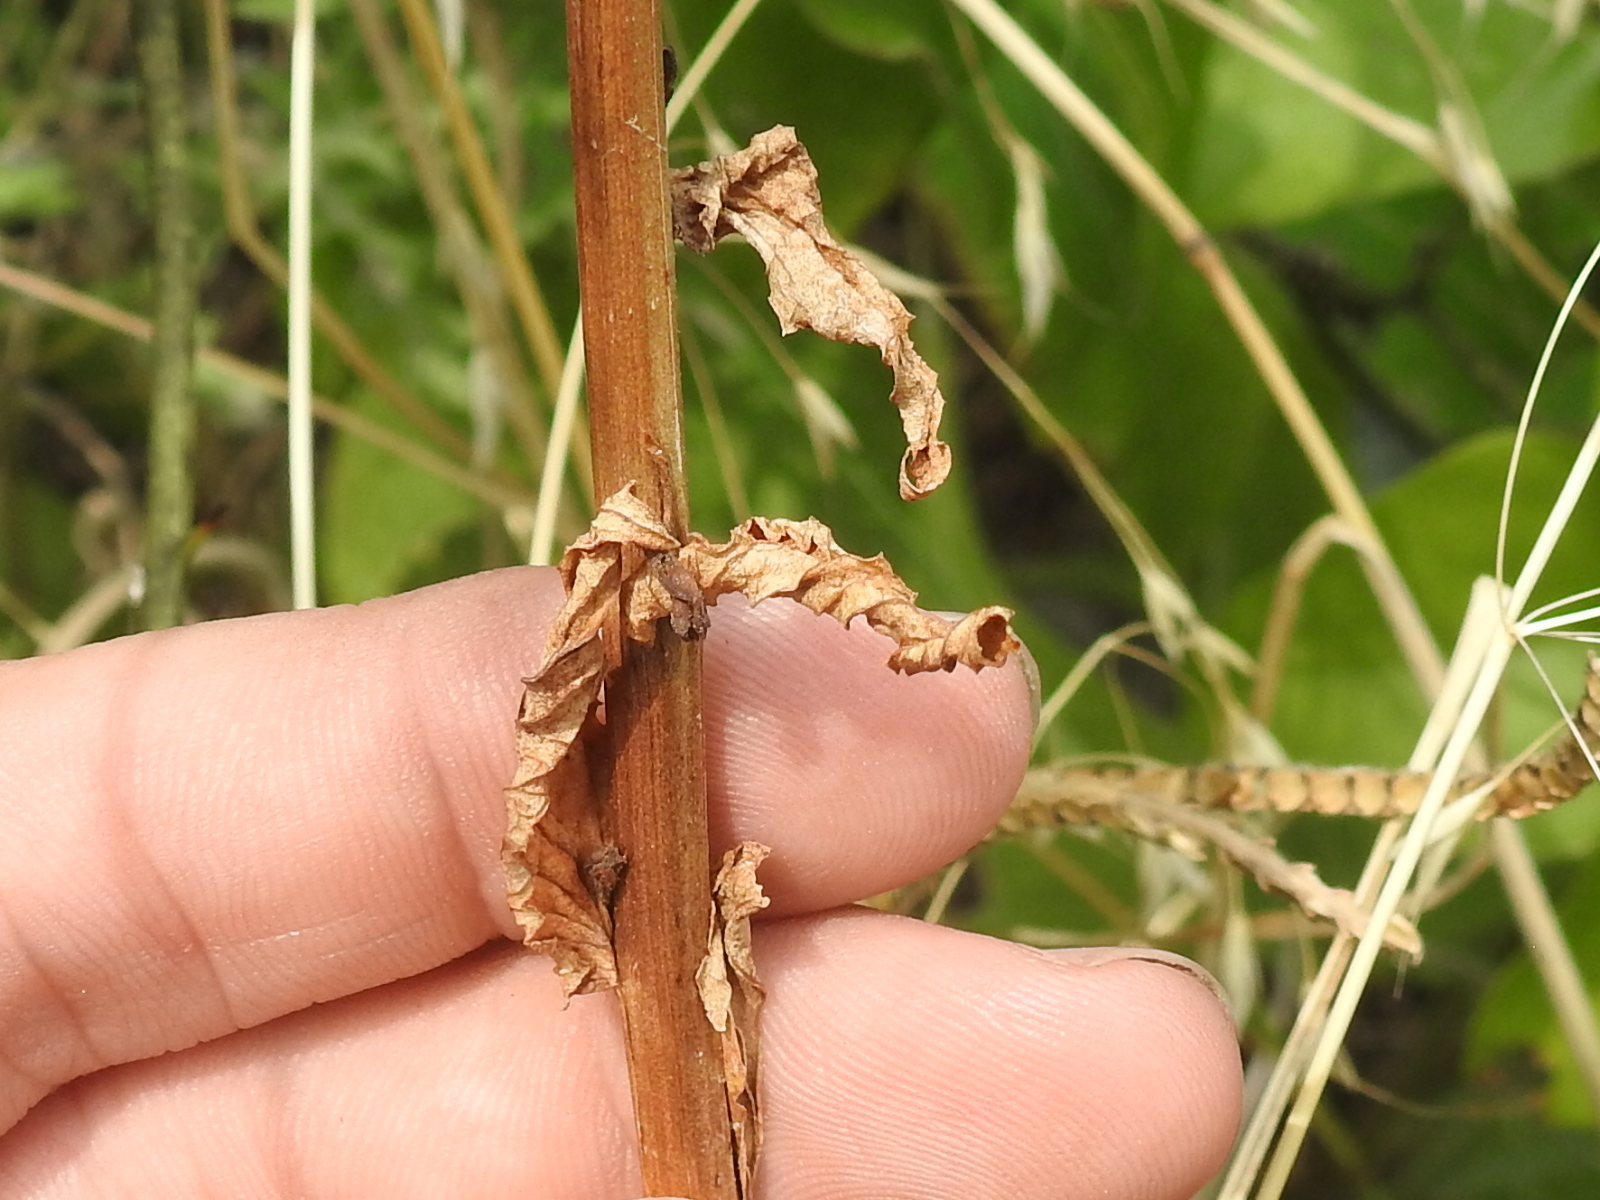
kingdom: Plantae
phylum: Tracheophyta
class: Magnoliopsida
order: Lamiales
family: Scrophulariaceae
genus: Verbascum
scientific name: Verbascum blattaria
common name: Moth mullein
